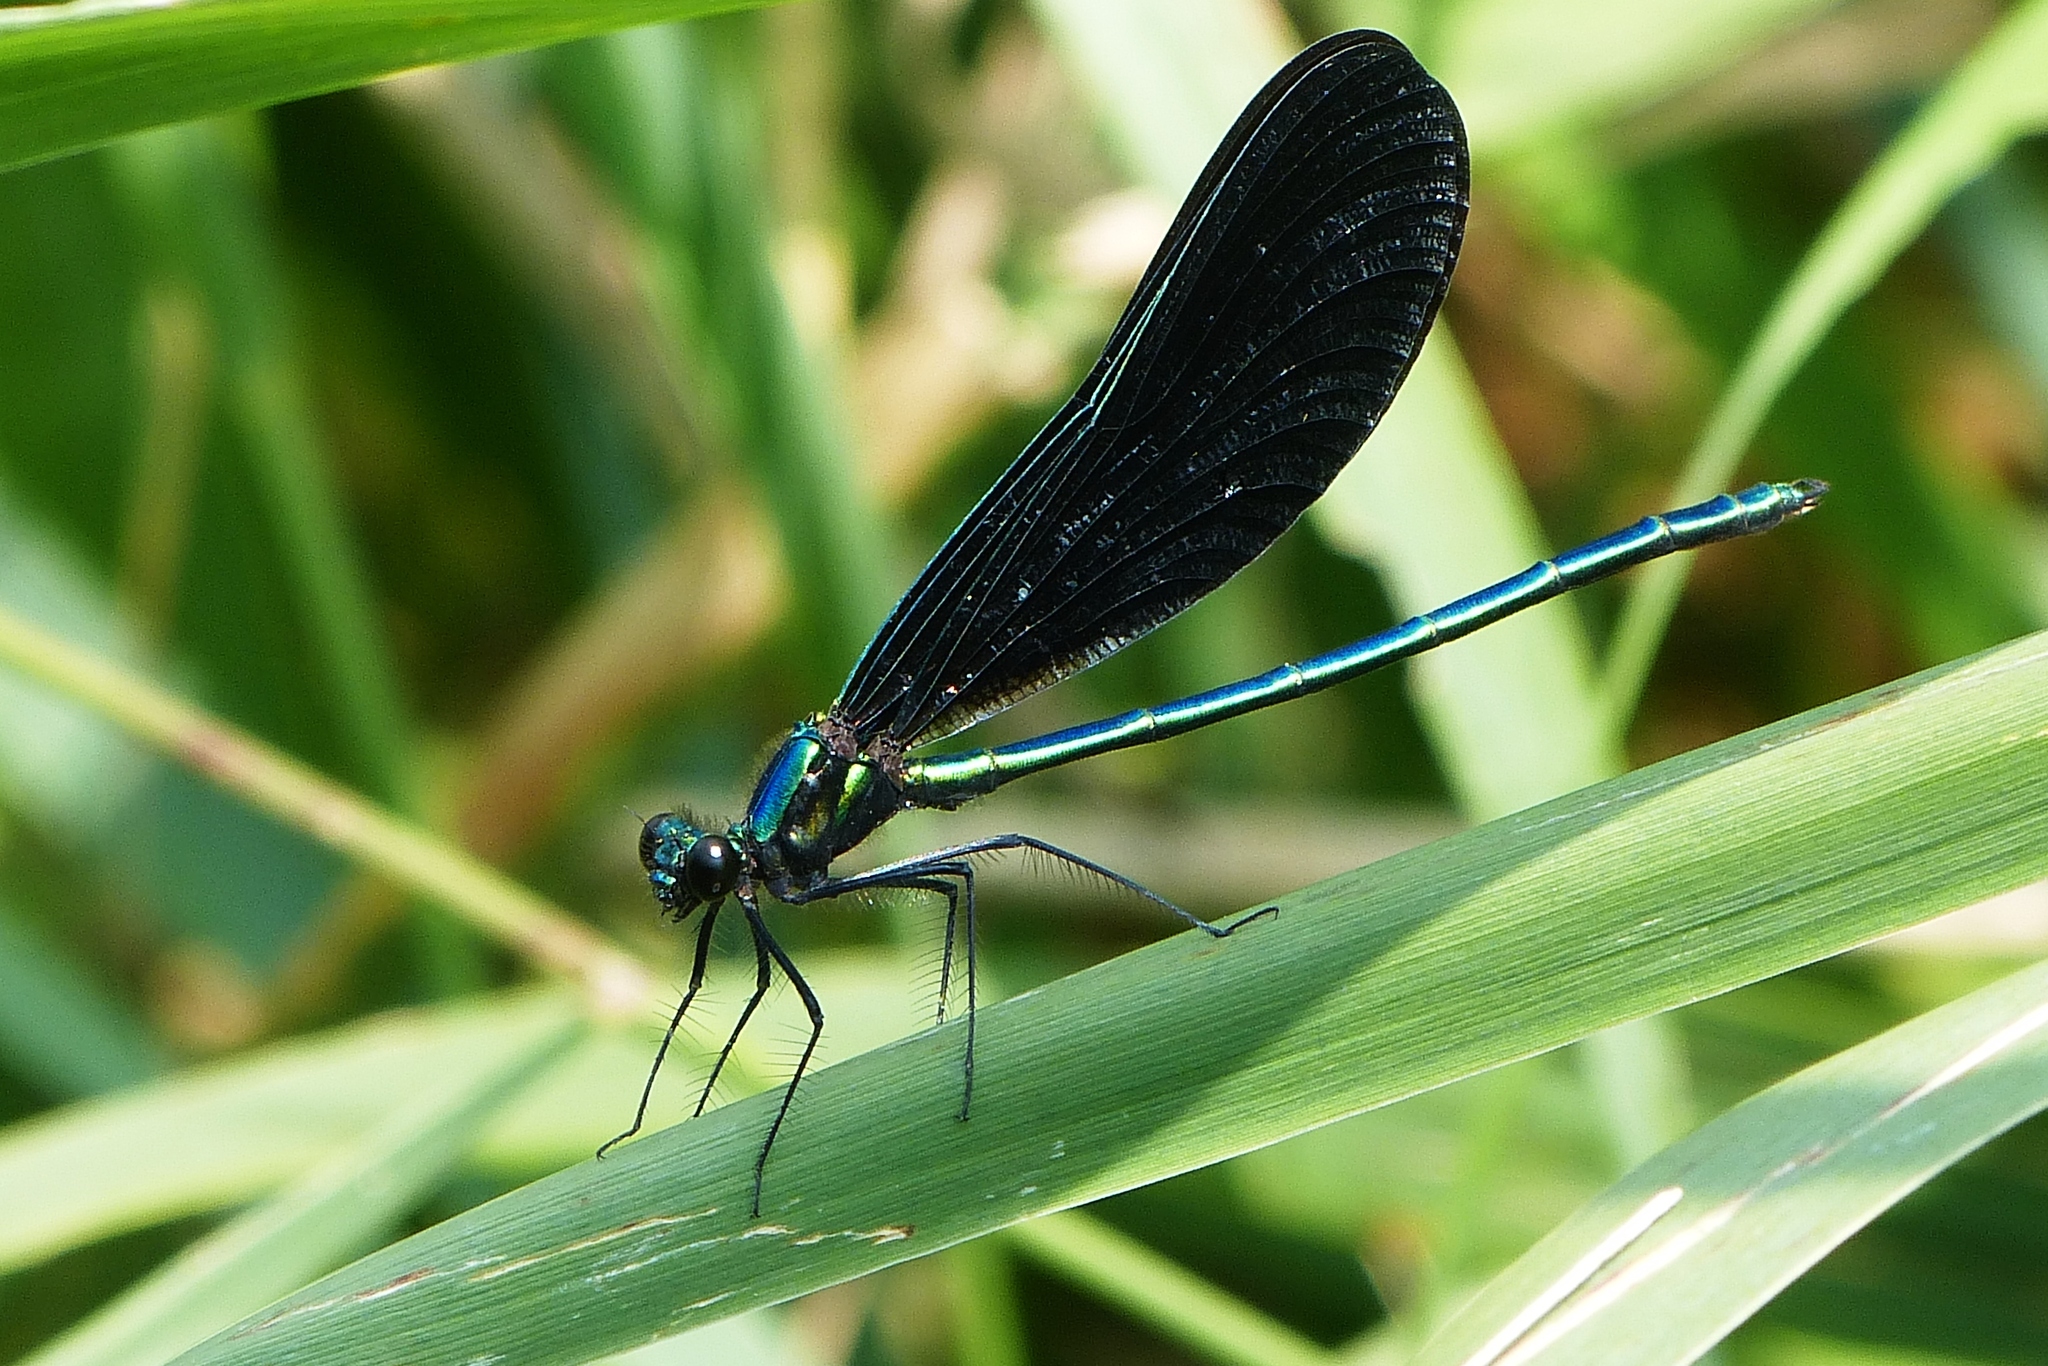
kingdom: Animalia
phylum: Arthropoda
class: Insecta
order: Odonata
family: Calopterygidae
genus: Calopteryx
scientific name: Calopteryx maculata
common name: Ebony jewelwing
